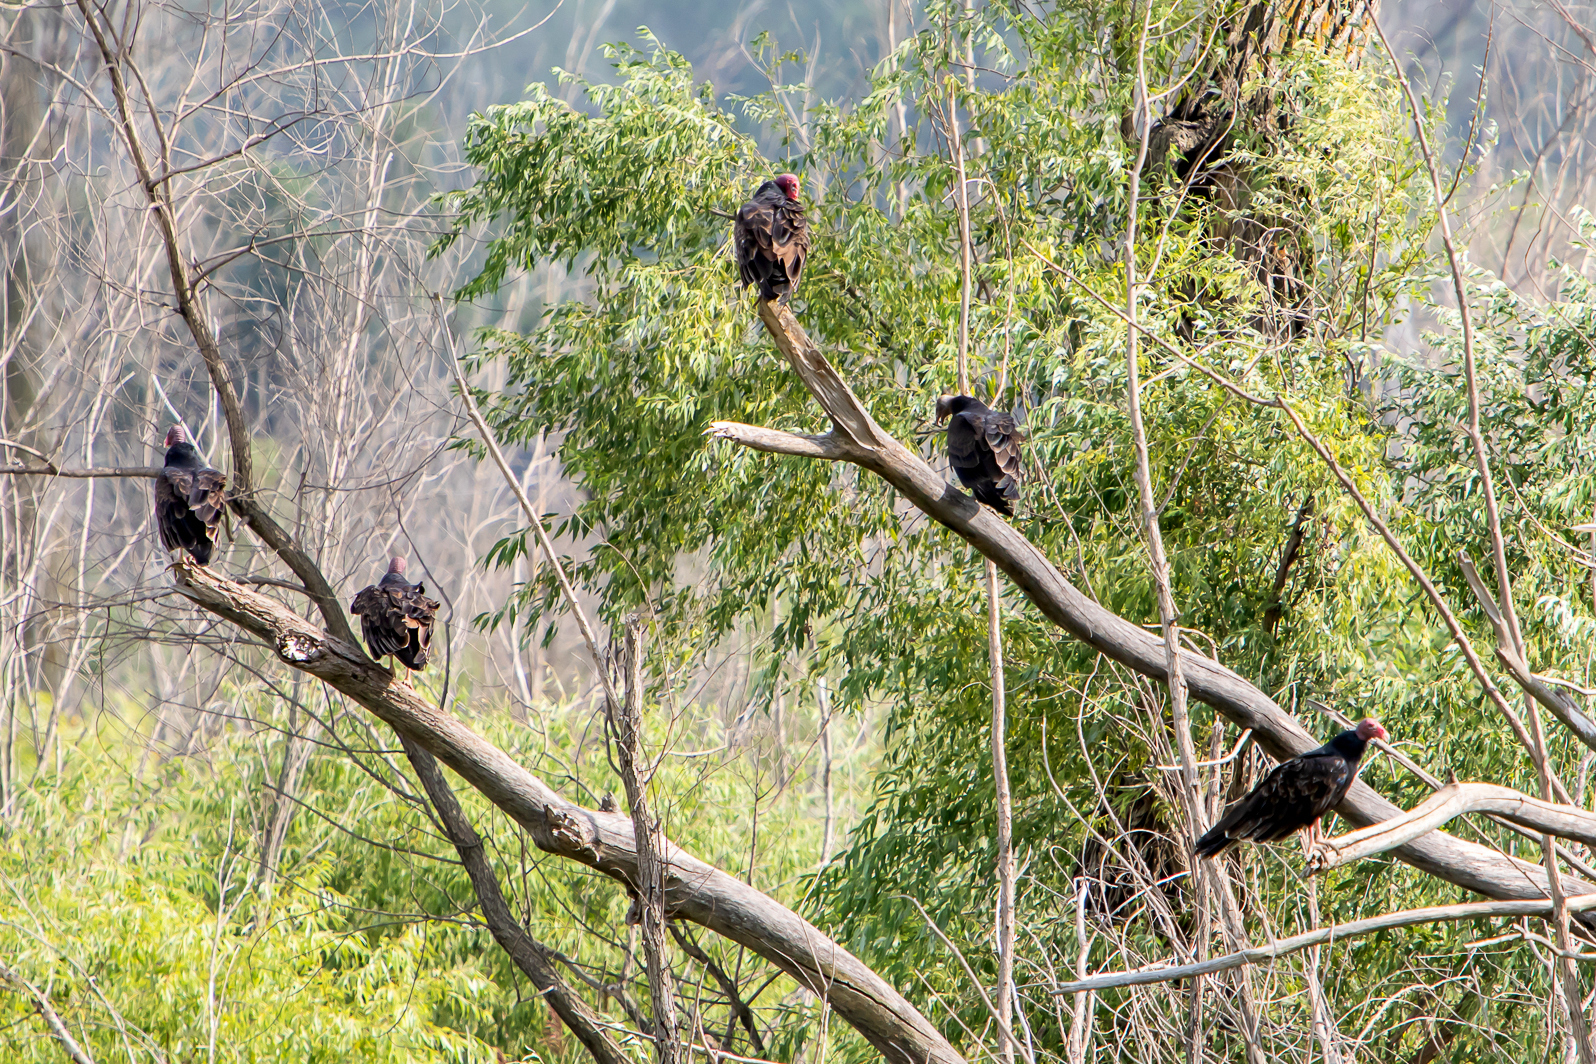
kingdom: Animalia
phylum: Chordata
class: Aves
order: Accipitriformes
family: Cathartidae
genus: Cathartes
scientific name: Cathartes aura
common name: Turkey vulture
